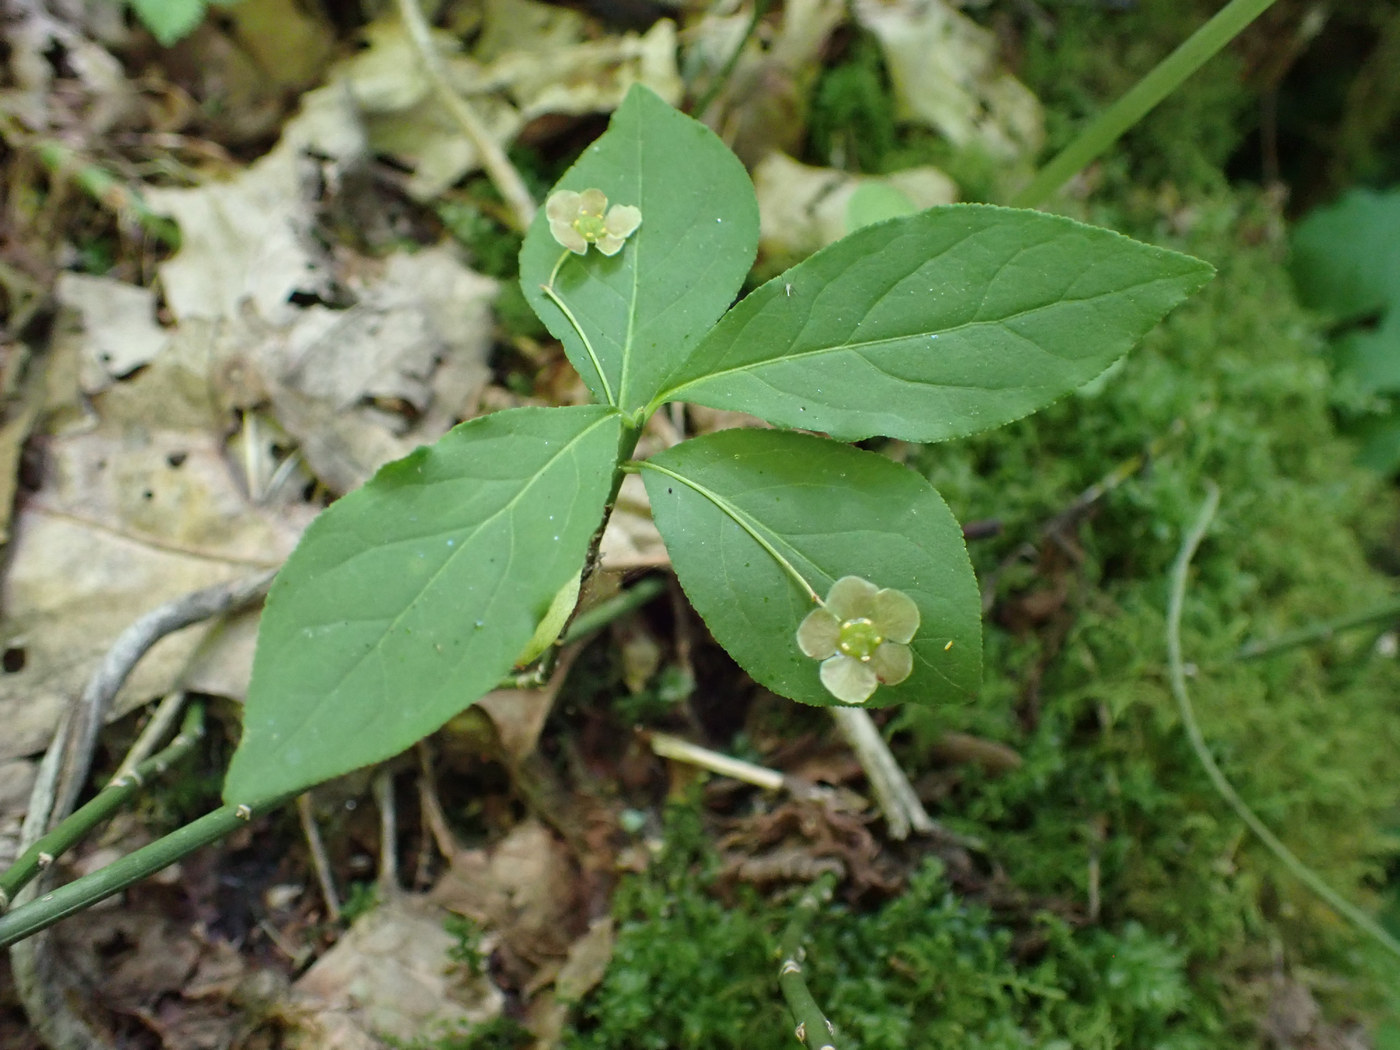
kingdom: Plantae
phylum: Tracheophyta
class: Magnoliopsida
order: Celastrales
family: Celastraceae
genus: Euonymus
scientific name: Euonymus obovatus
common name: Running strawberry-bush
